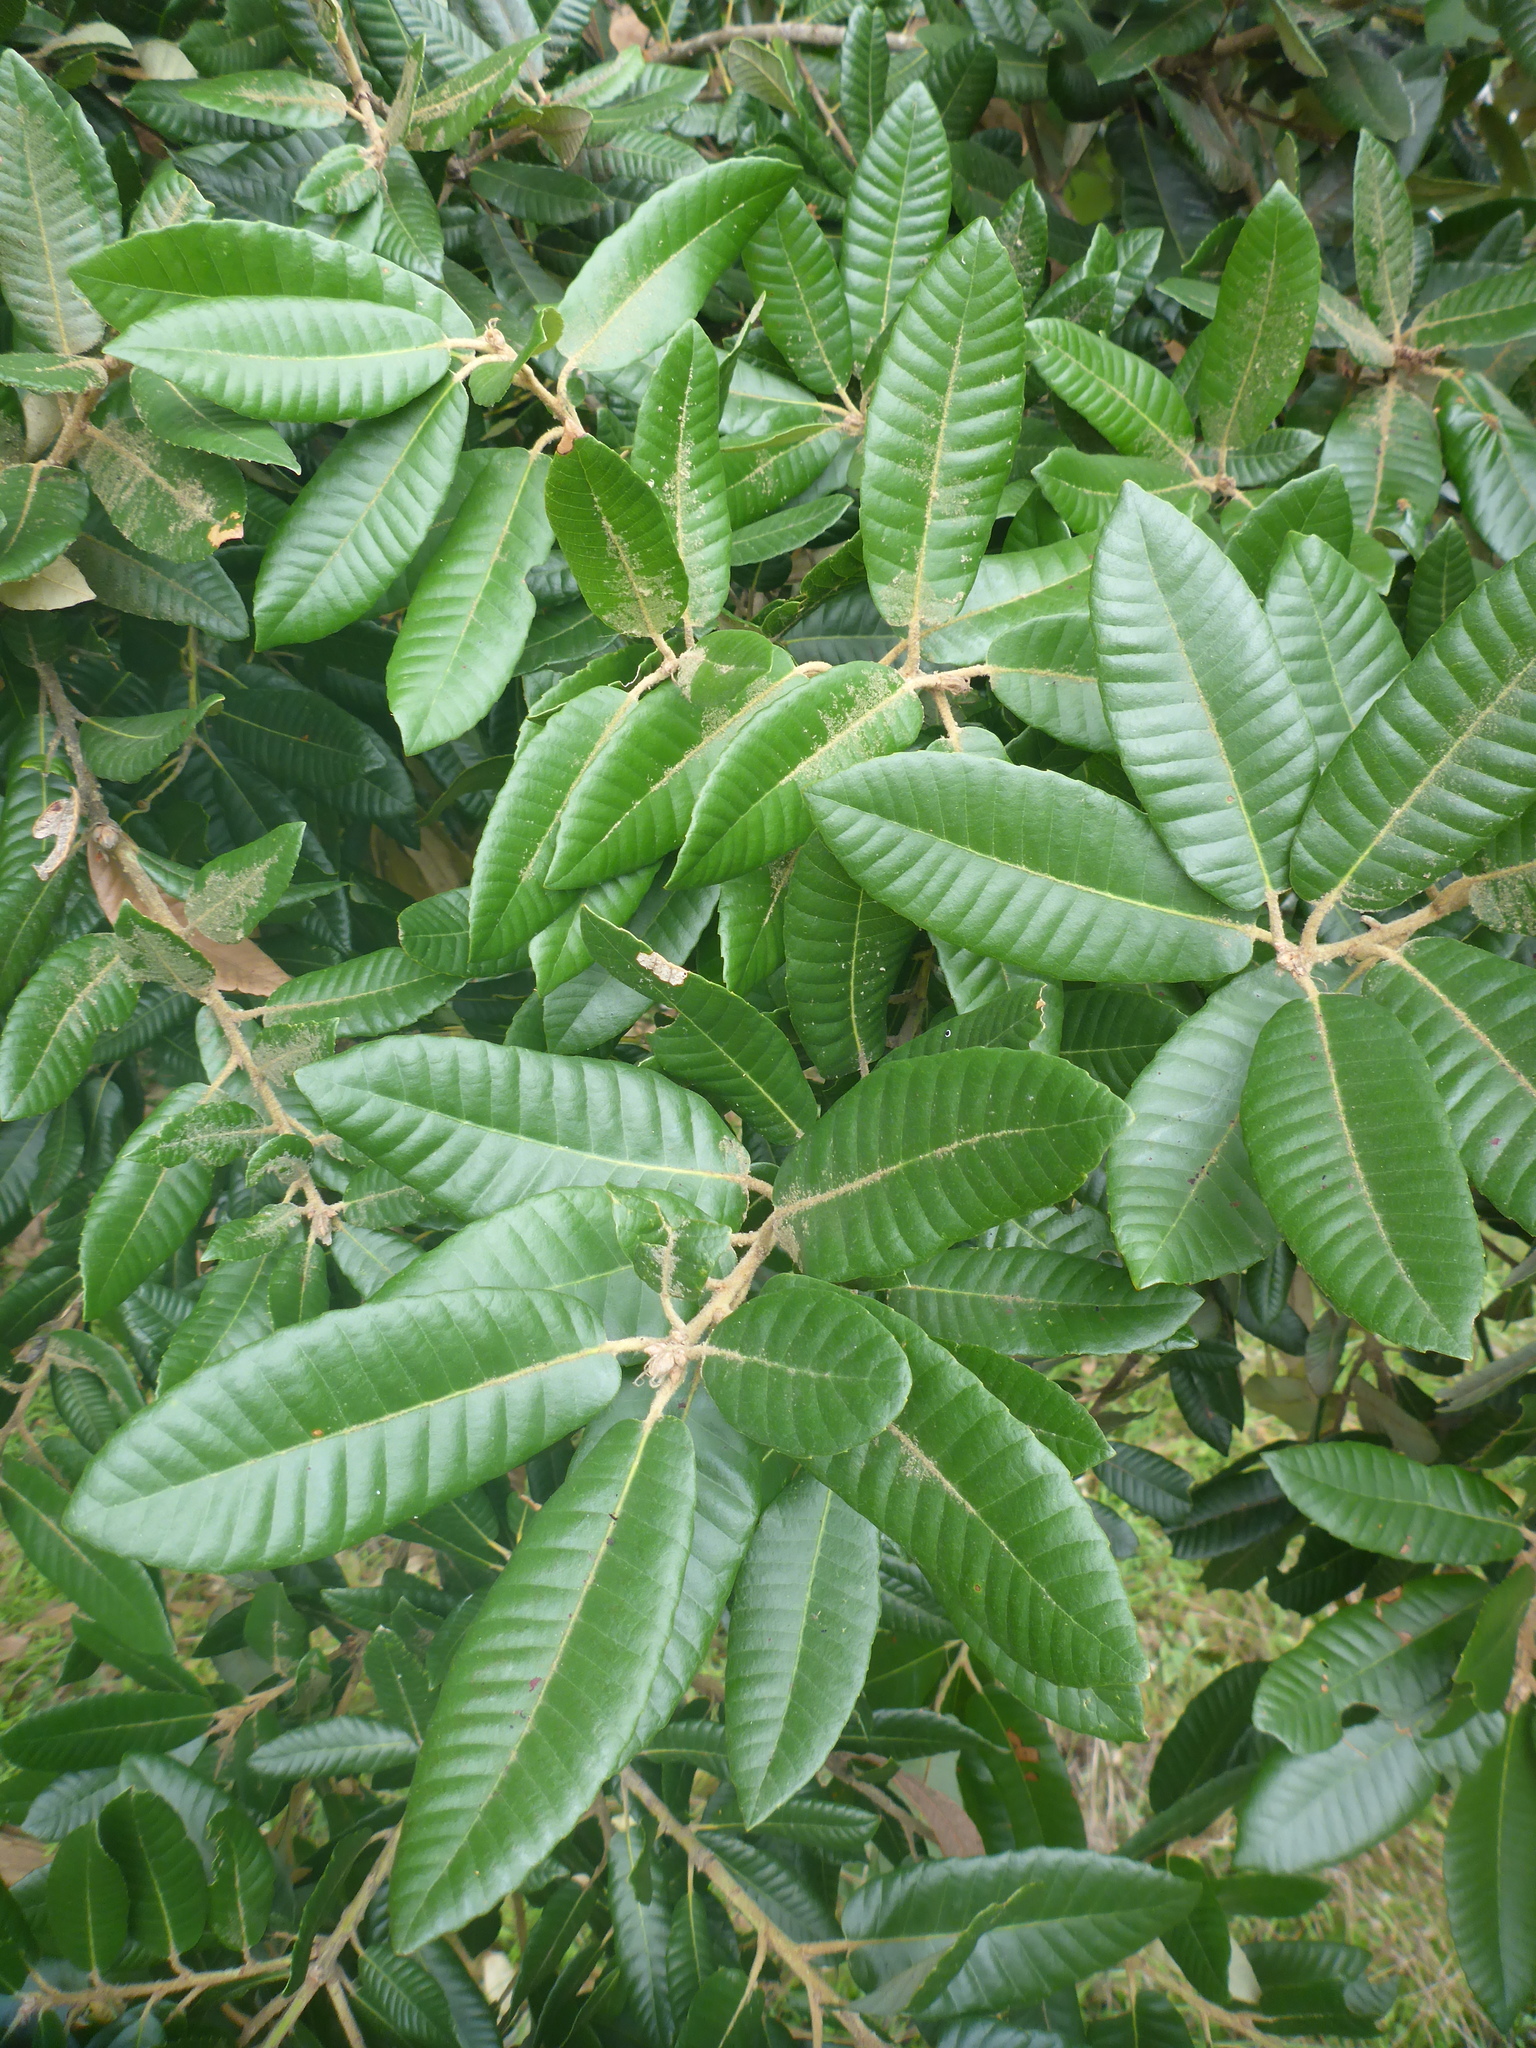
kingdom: Plantae
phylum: Tracheophyta
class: Magnoliopsida
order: Fagales
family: Fagaceae
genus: Notholithocarpus
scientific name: Notholithocarpus densiflorus
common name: Tan bark oak
